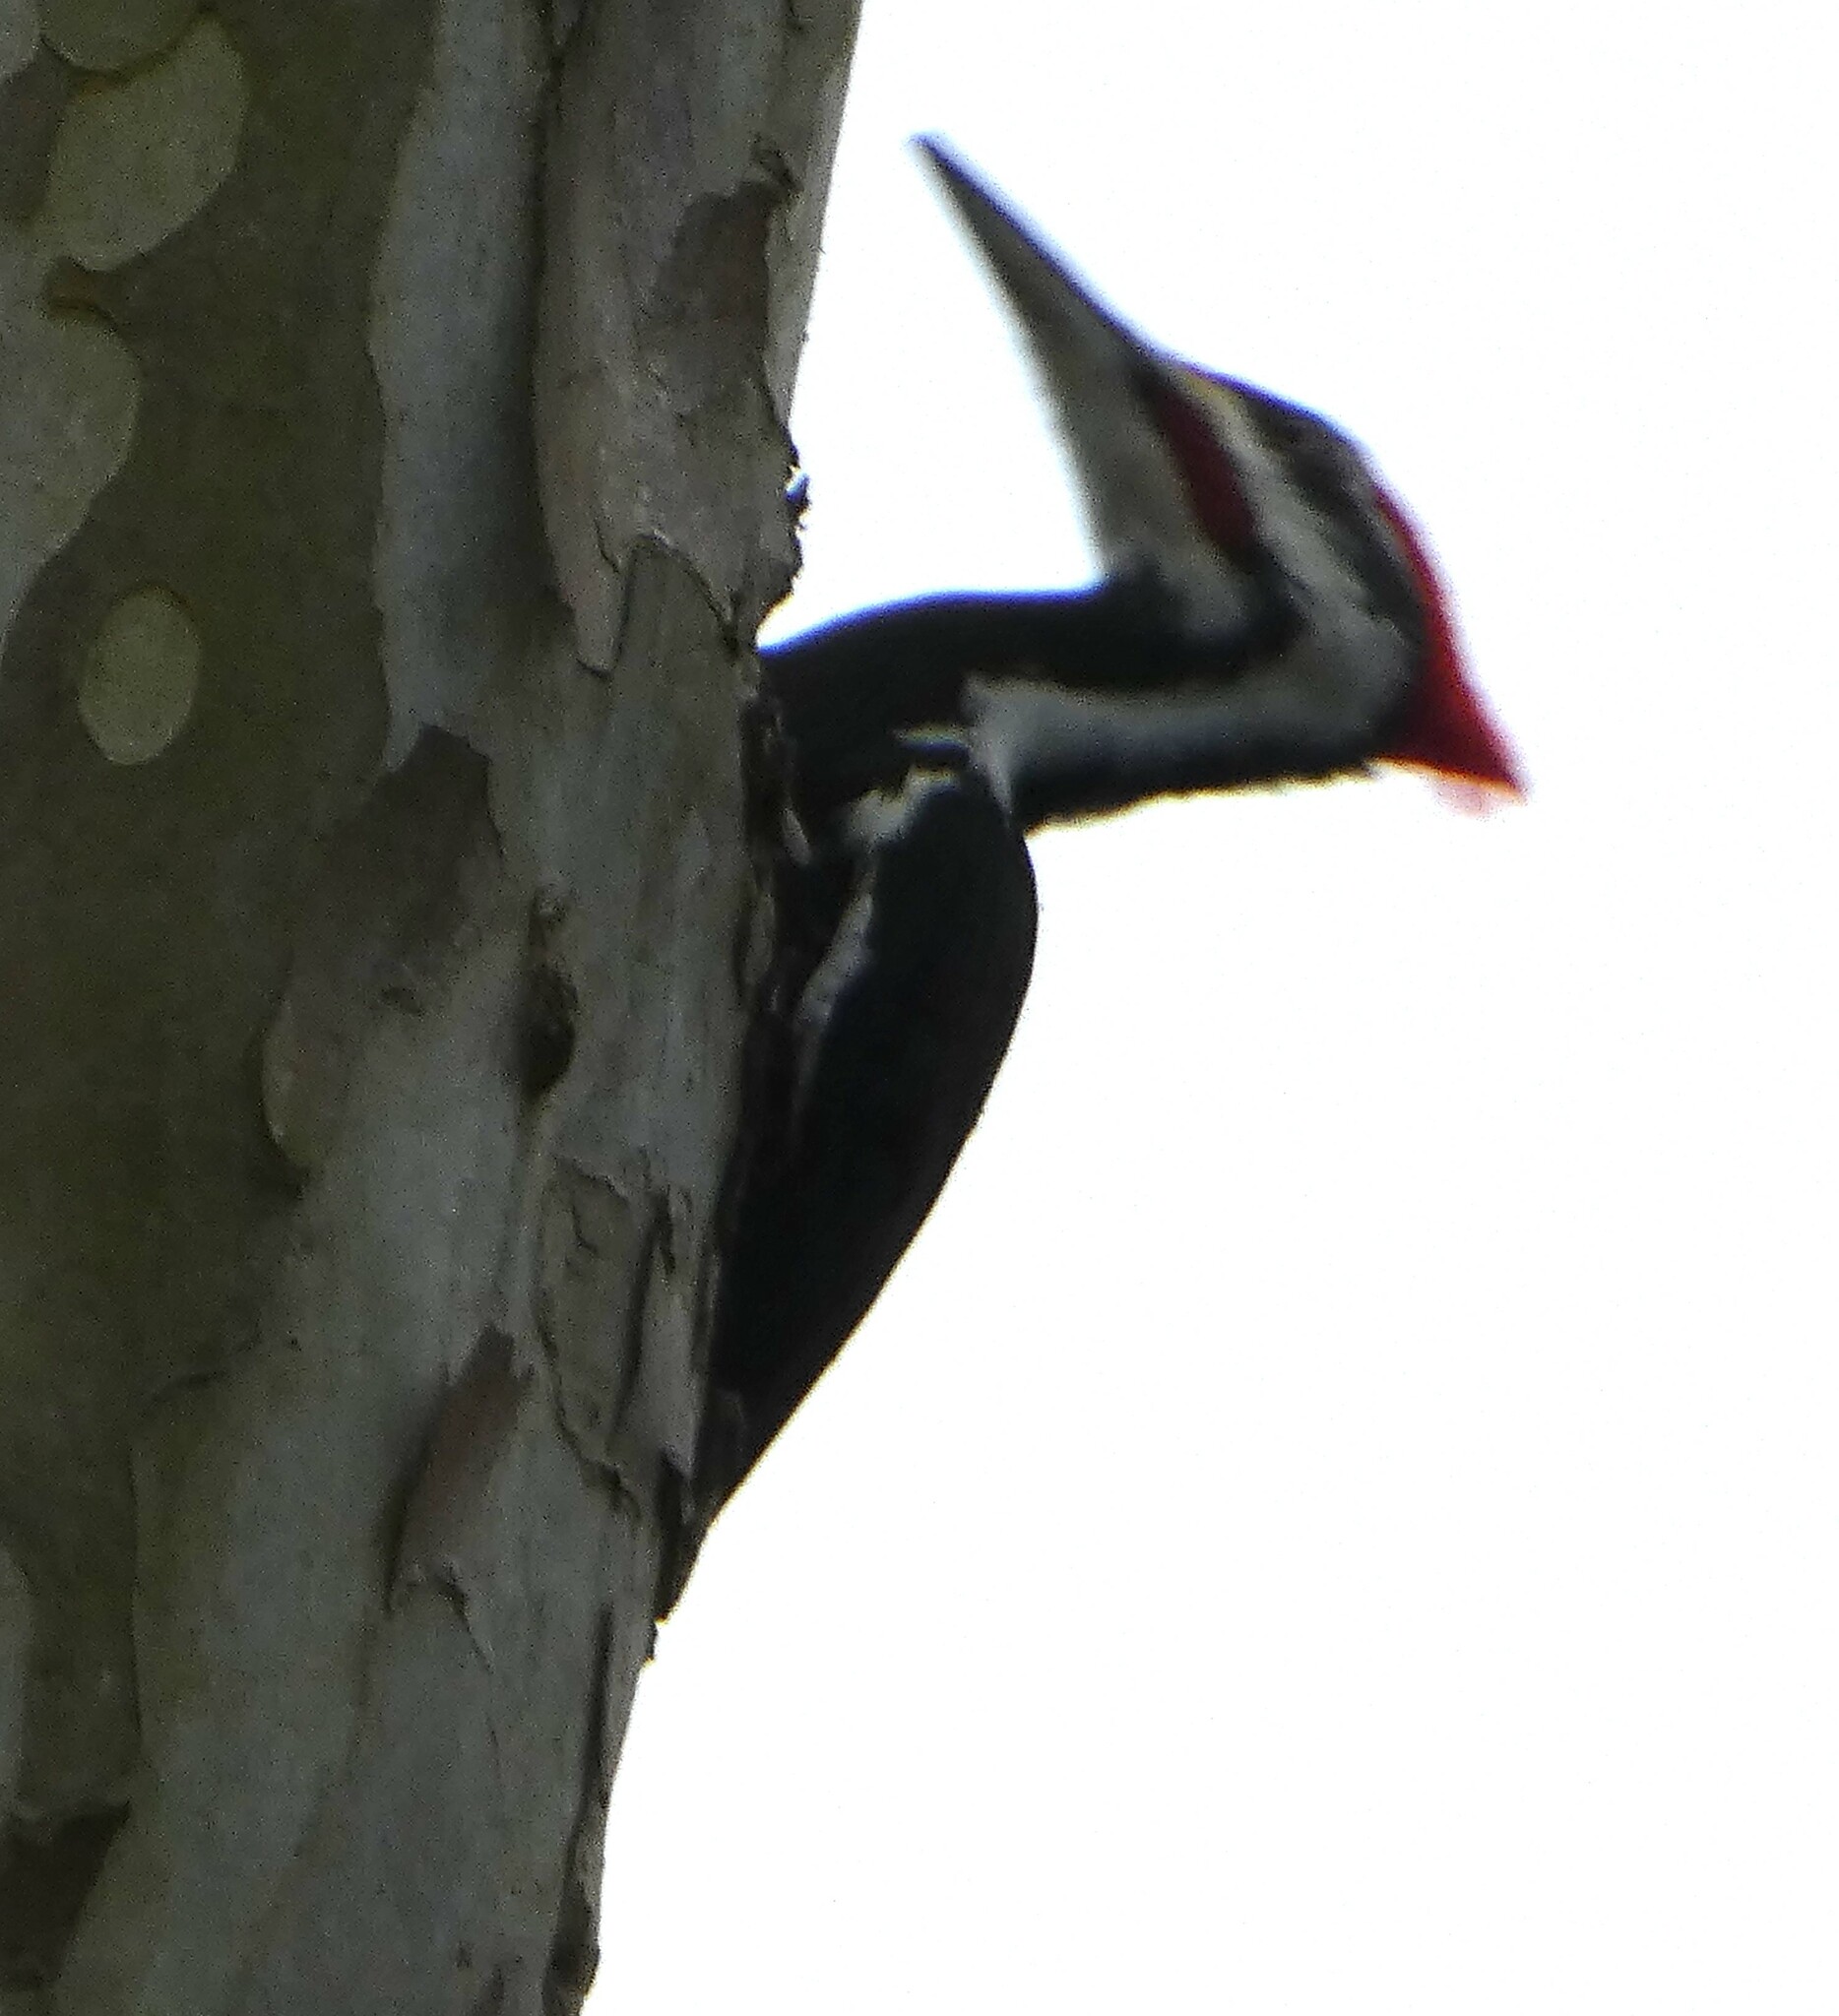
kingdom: Animalia
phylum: Chordata
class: Aves
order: Piciformes
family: Picidae
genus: Dryocopus
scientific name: Dryocopus pileatus
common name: Pileated woodpecker
